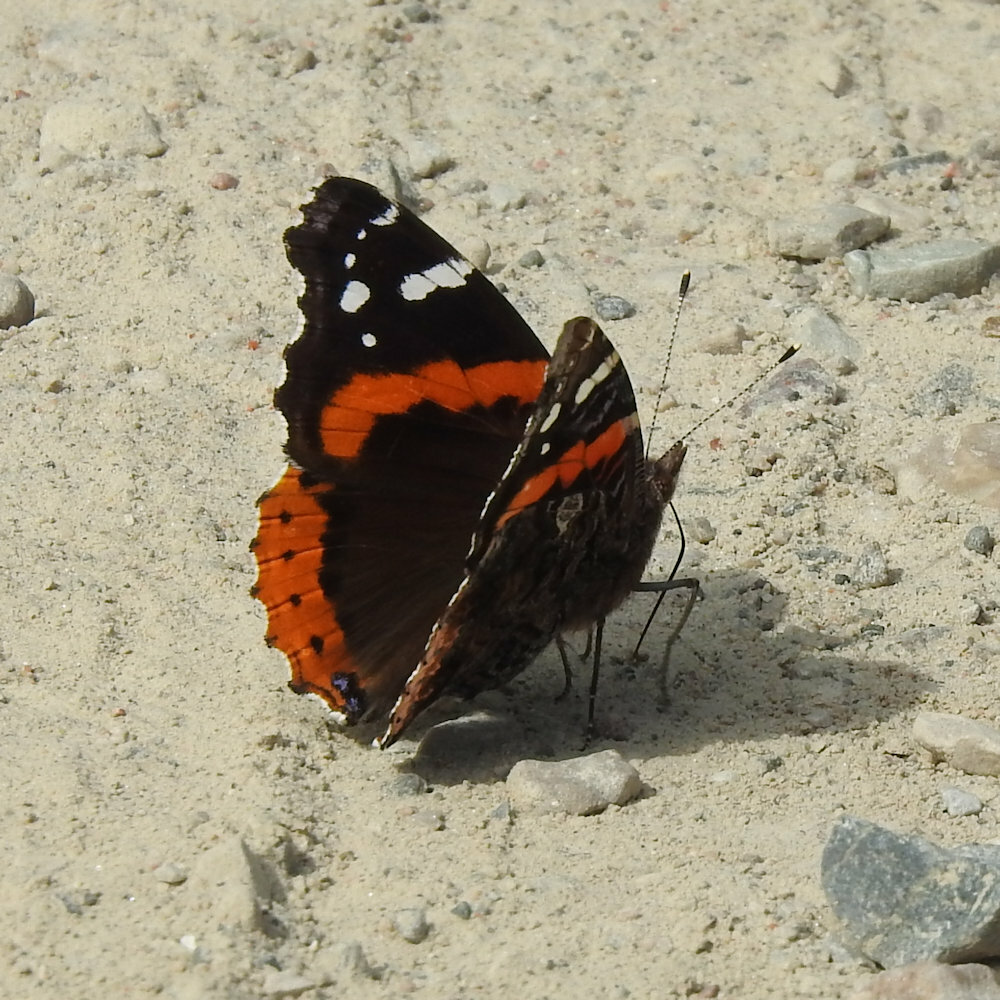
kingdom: Animalia
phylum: Arthropoda
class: Insecta
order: Lepidoptera
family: Nymphalidae
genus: Vanessa
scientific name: Vanessa atalanta
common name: Red admiral
